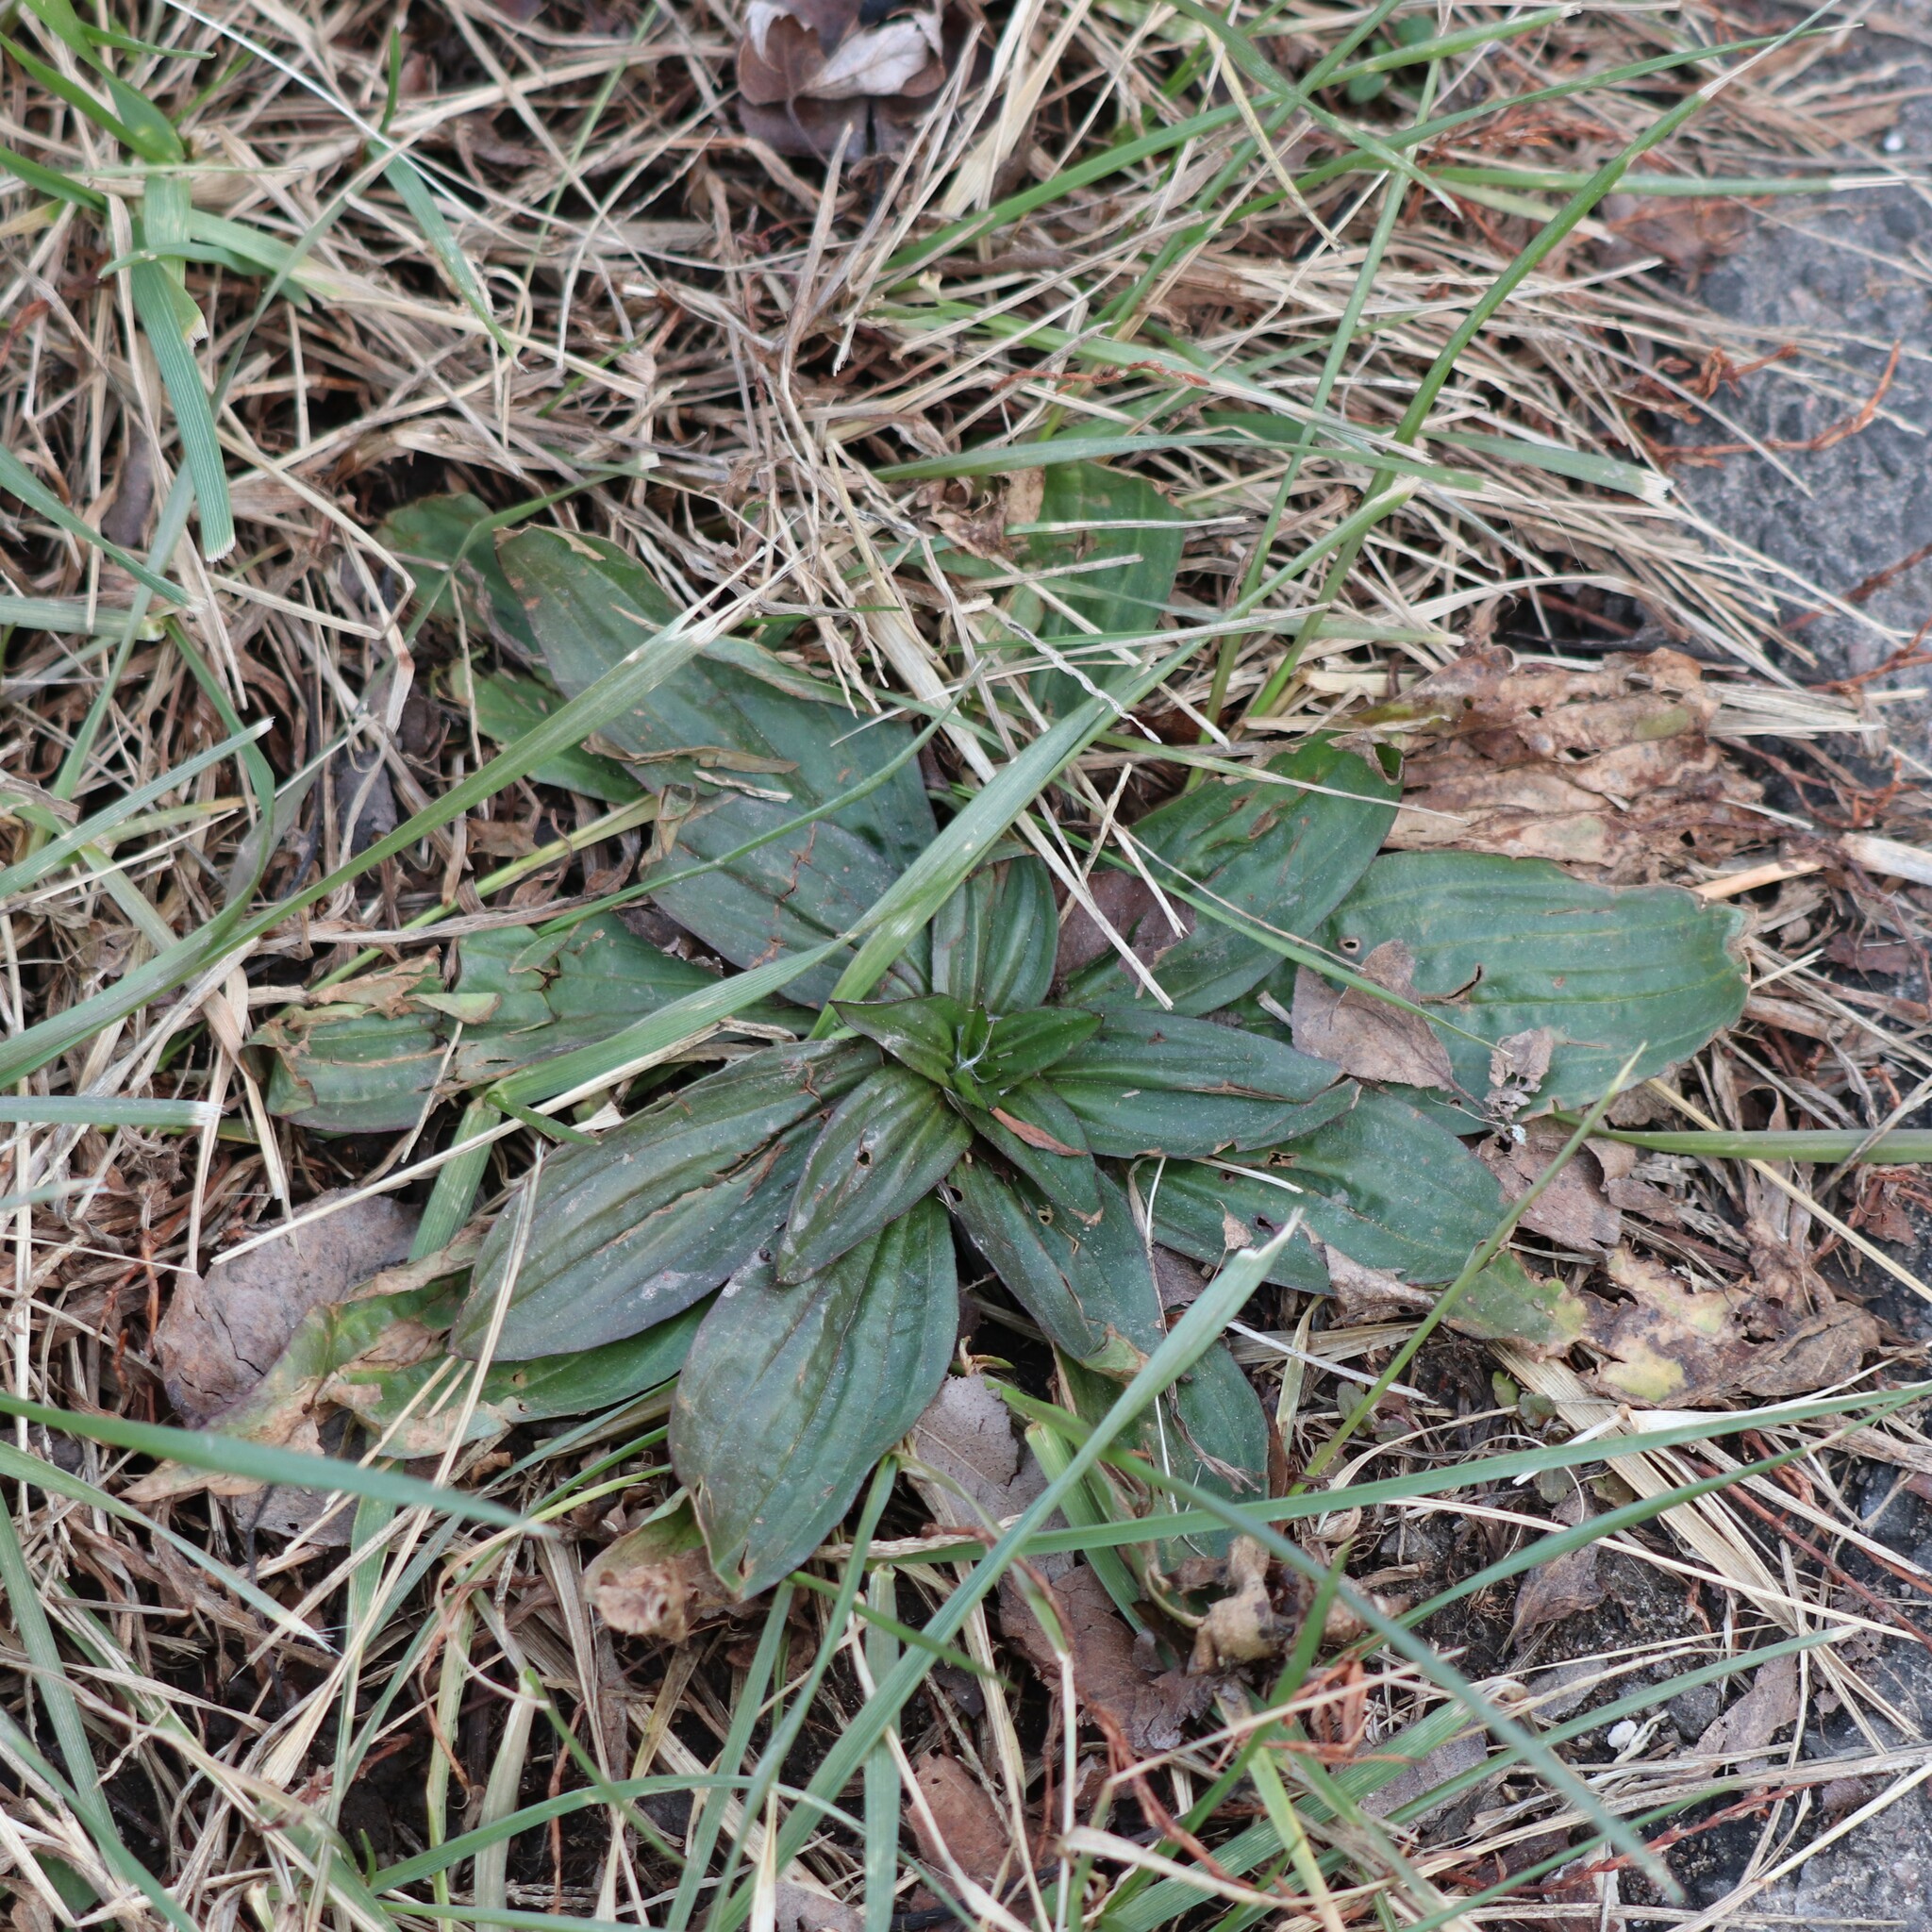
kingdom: Plantae
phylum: Tracheophyta
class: Magnoliopsida
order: Lamiales
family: Plantaginaceae
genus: Plantago
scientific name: Plantago lanceolata
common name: Ribwort plantain
